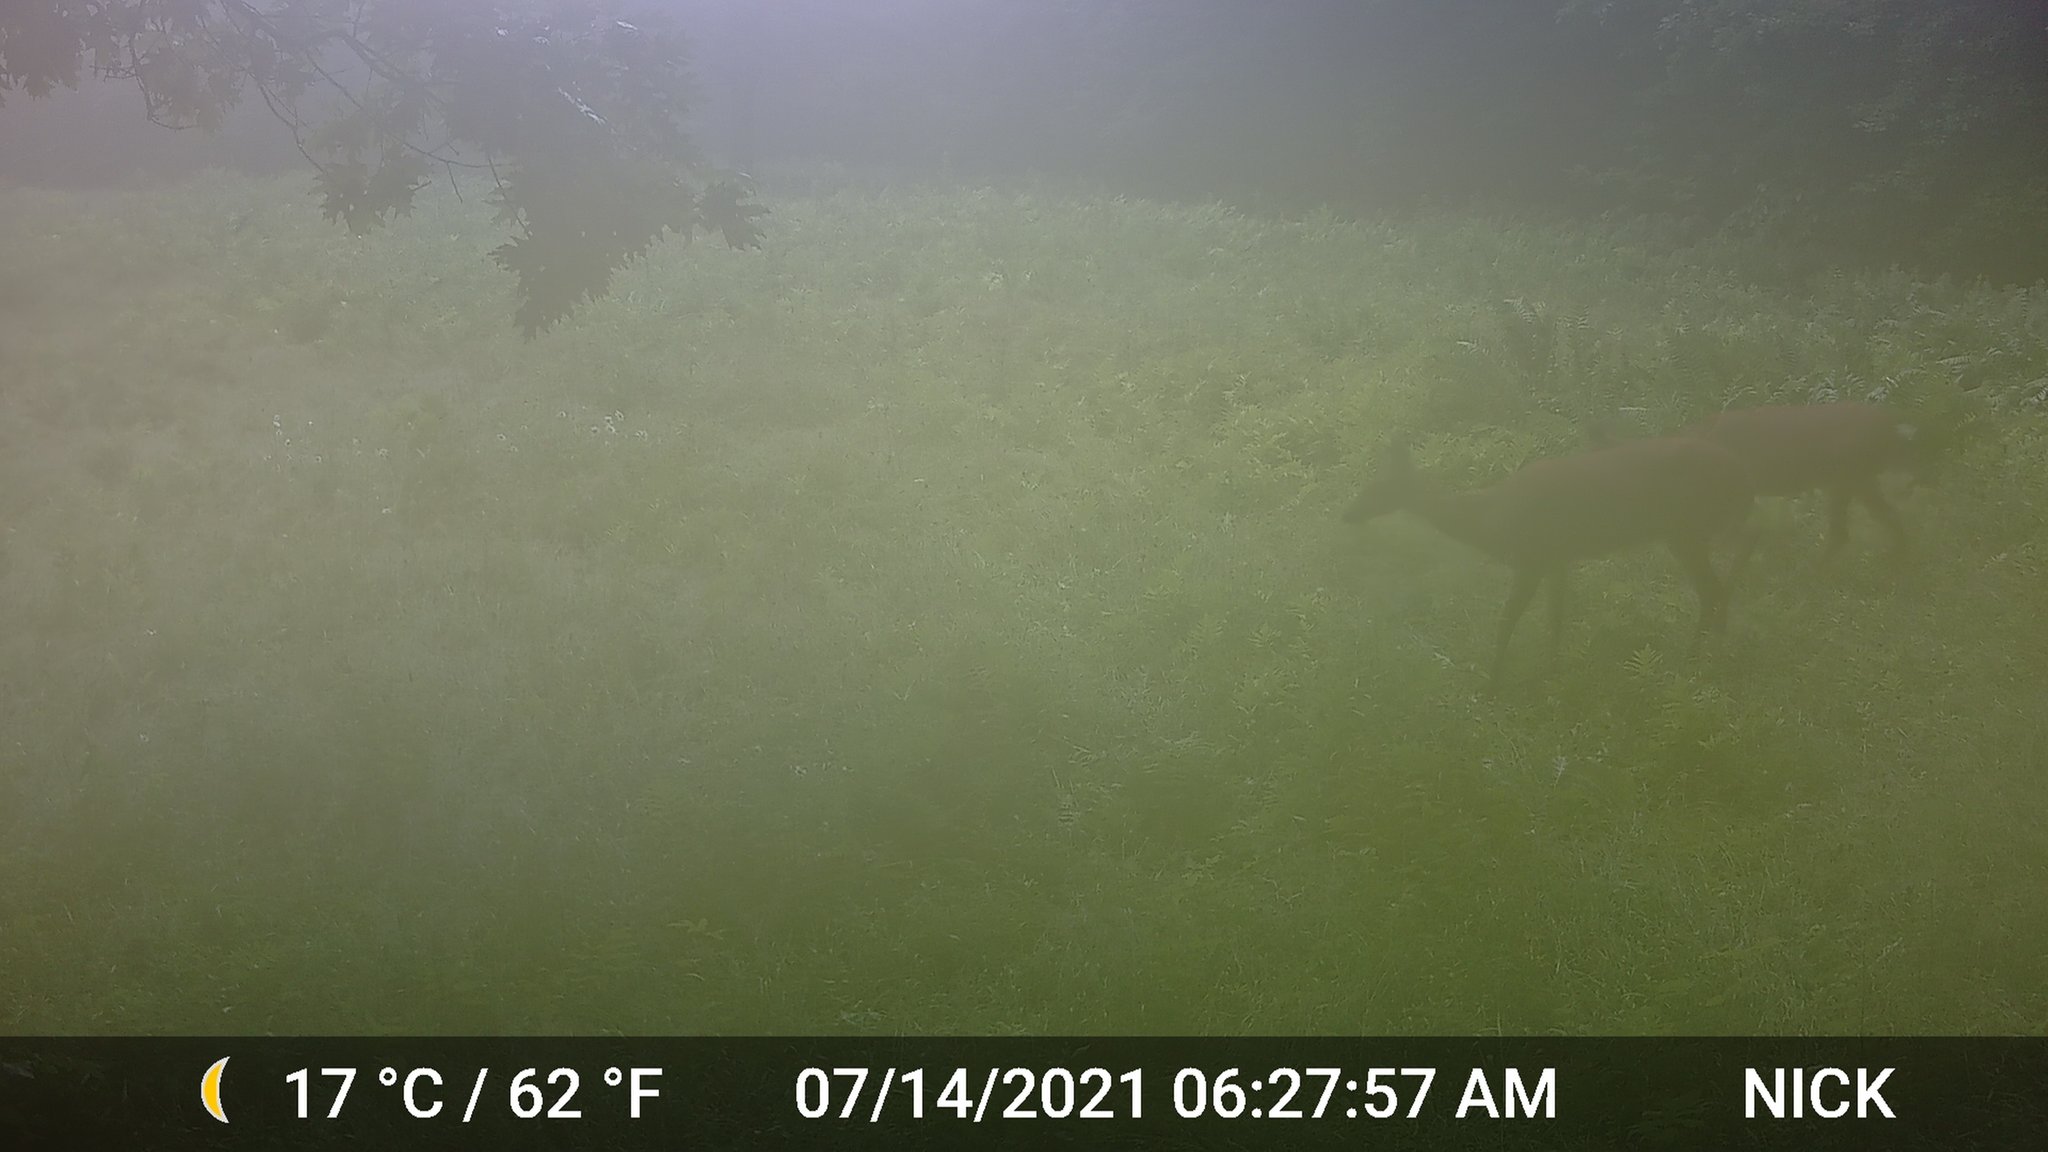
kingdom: Animalia
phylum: Chordata
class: Mammalia
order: Artiodactyla
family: Cervidae
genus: Odocoileus
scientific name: Odocoileus virginianus
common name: White-tailed deer
